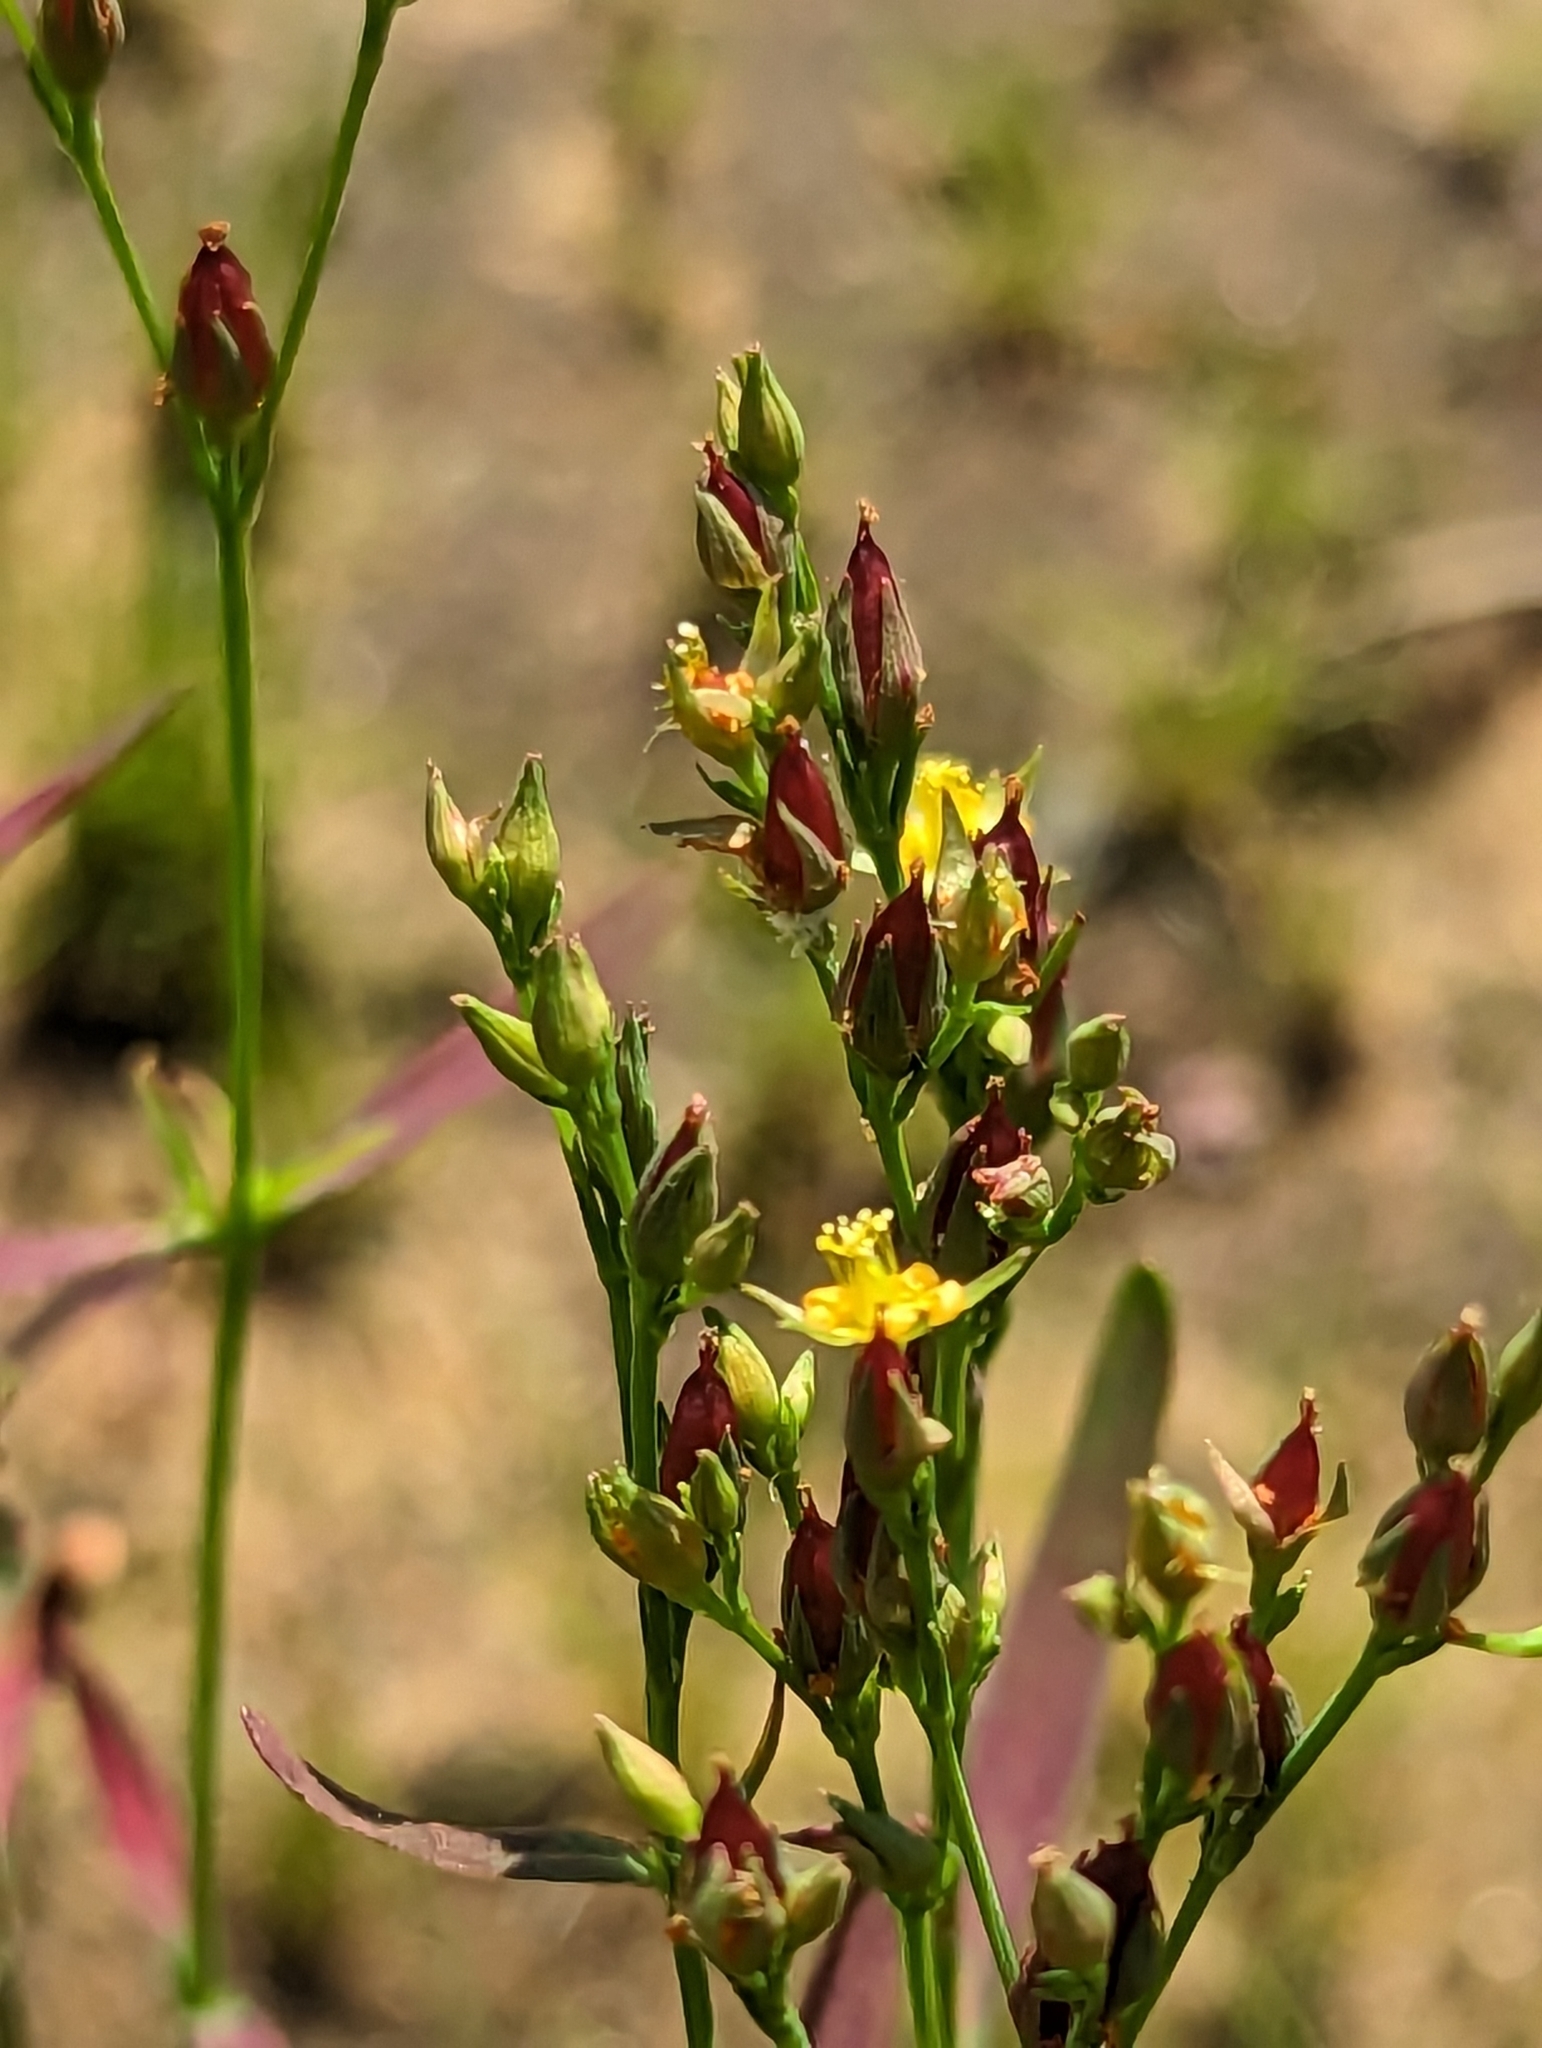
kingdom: Plantae
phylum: Tracheophyta
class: Magnoliopsida
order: Malpighiales
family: Hypericaceae
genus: Hypericum
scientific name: Hypericum canadense
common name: Irish st. john's-wort
